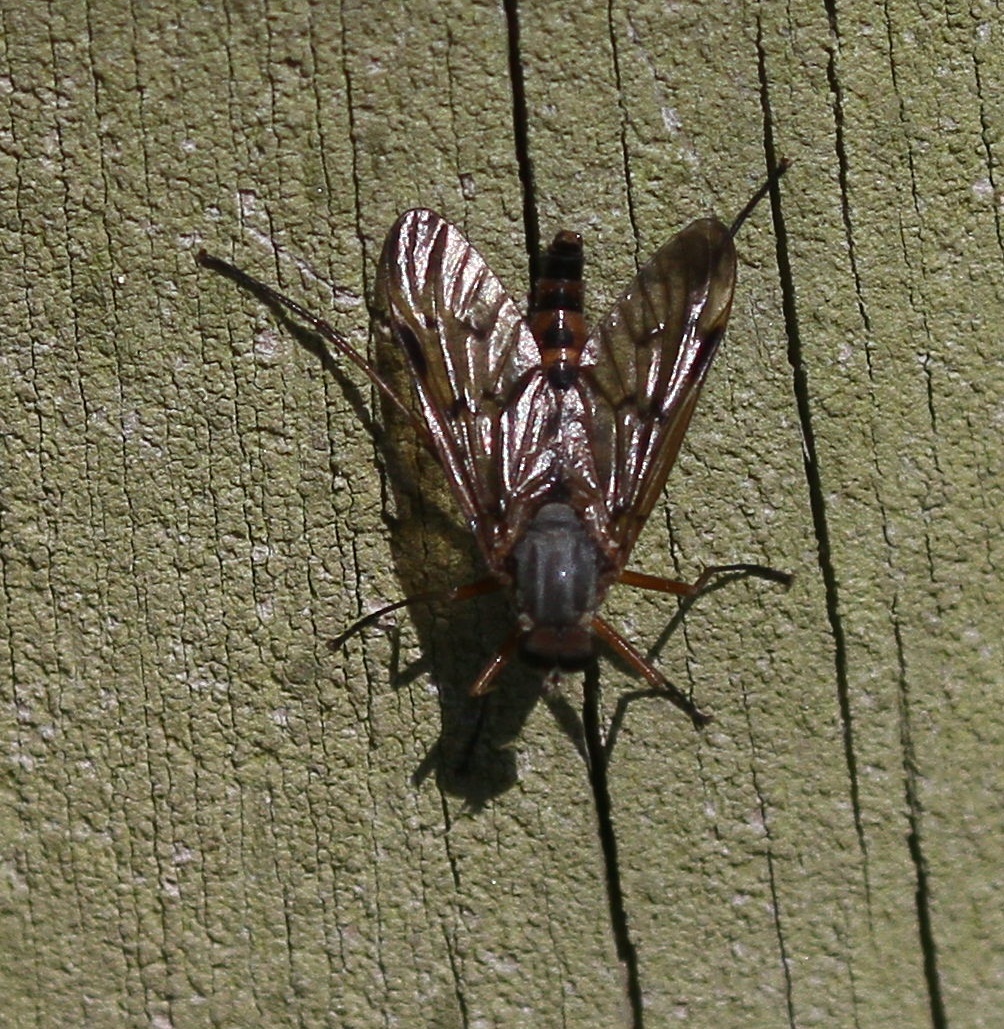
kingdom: Animalia
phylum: Arthropoda
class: Insecta
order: Diptera
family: Rhagionidae
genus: Rhagio
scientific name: Rhagio scolopacea
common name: Downlooker snipefly
